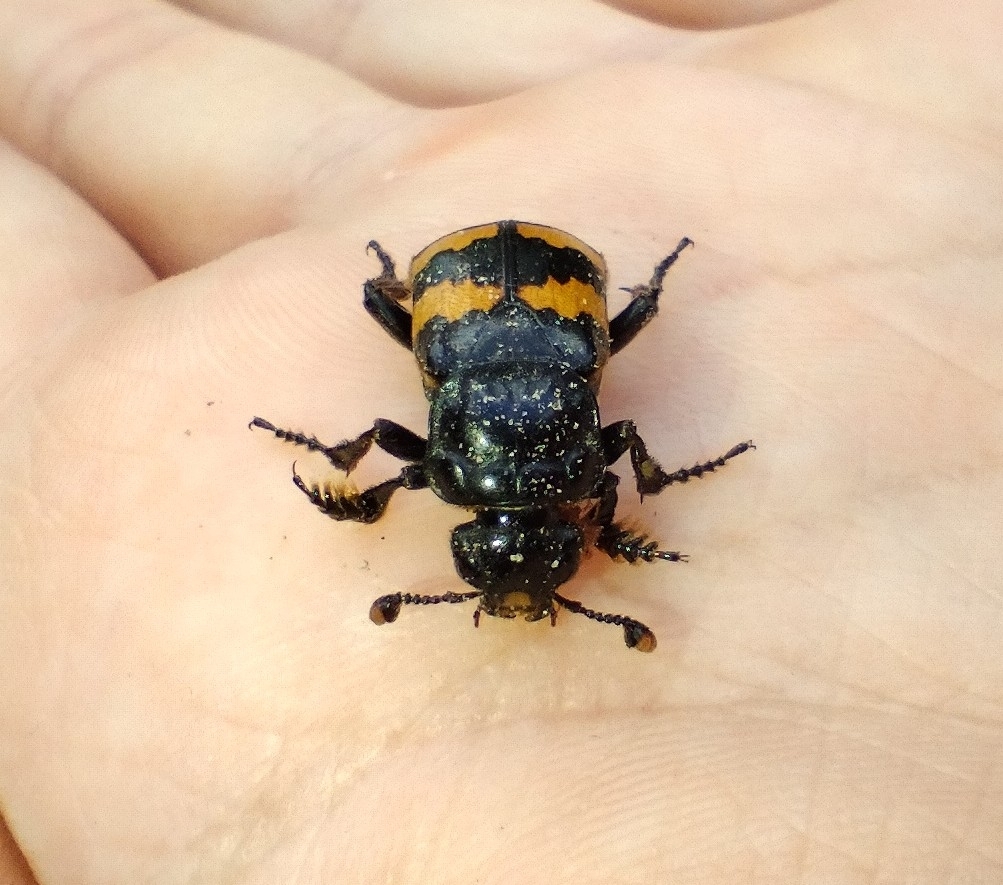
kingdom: Animalia
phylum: Arthropoda
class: Insecta
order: Coleoptera
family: Staphylinidae
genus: Nicrophorus
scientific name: Nicrophorus interruptus
